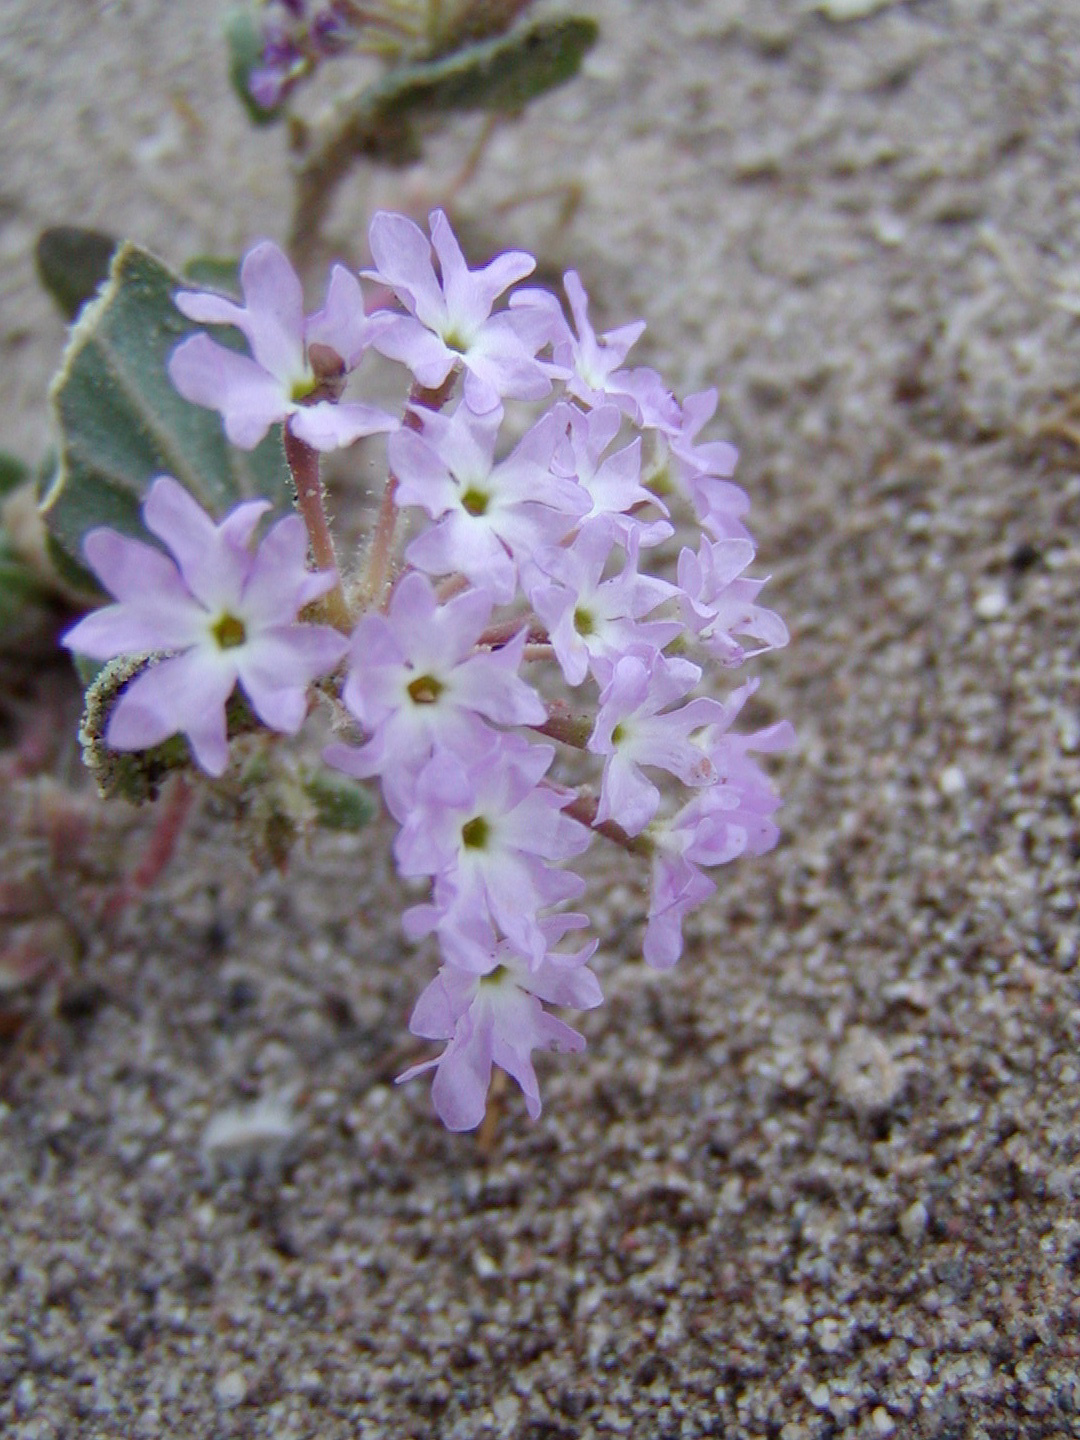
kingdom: Plantae
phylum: Tracheophyta
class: Magnoliopsida
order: Caryophyllales
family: Nyctaginaceae
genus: Abronia
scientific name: Abronia villosa
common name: Desert sand-verbena
